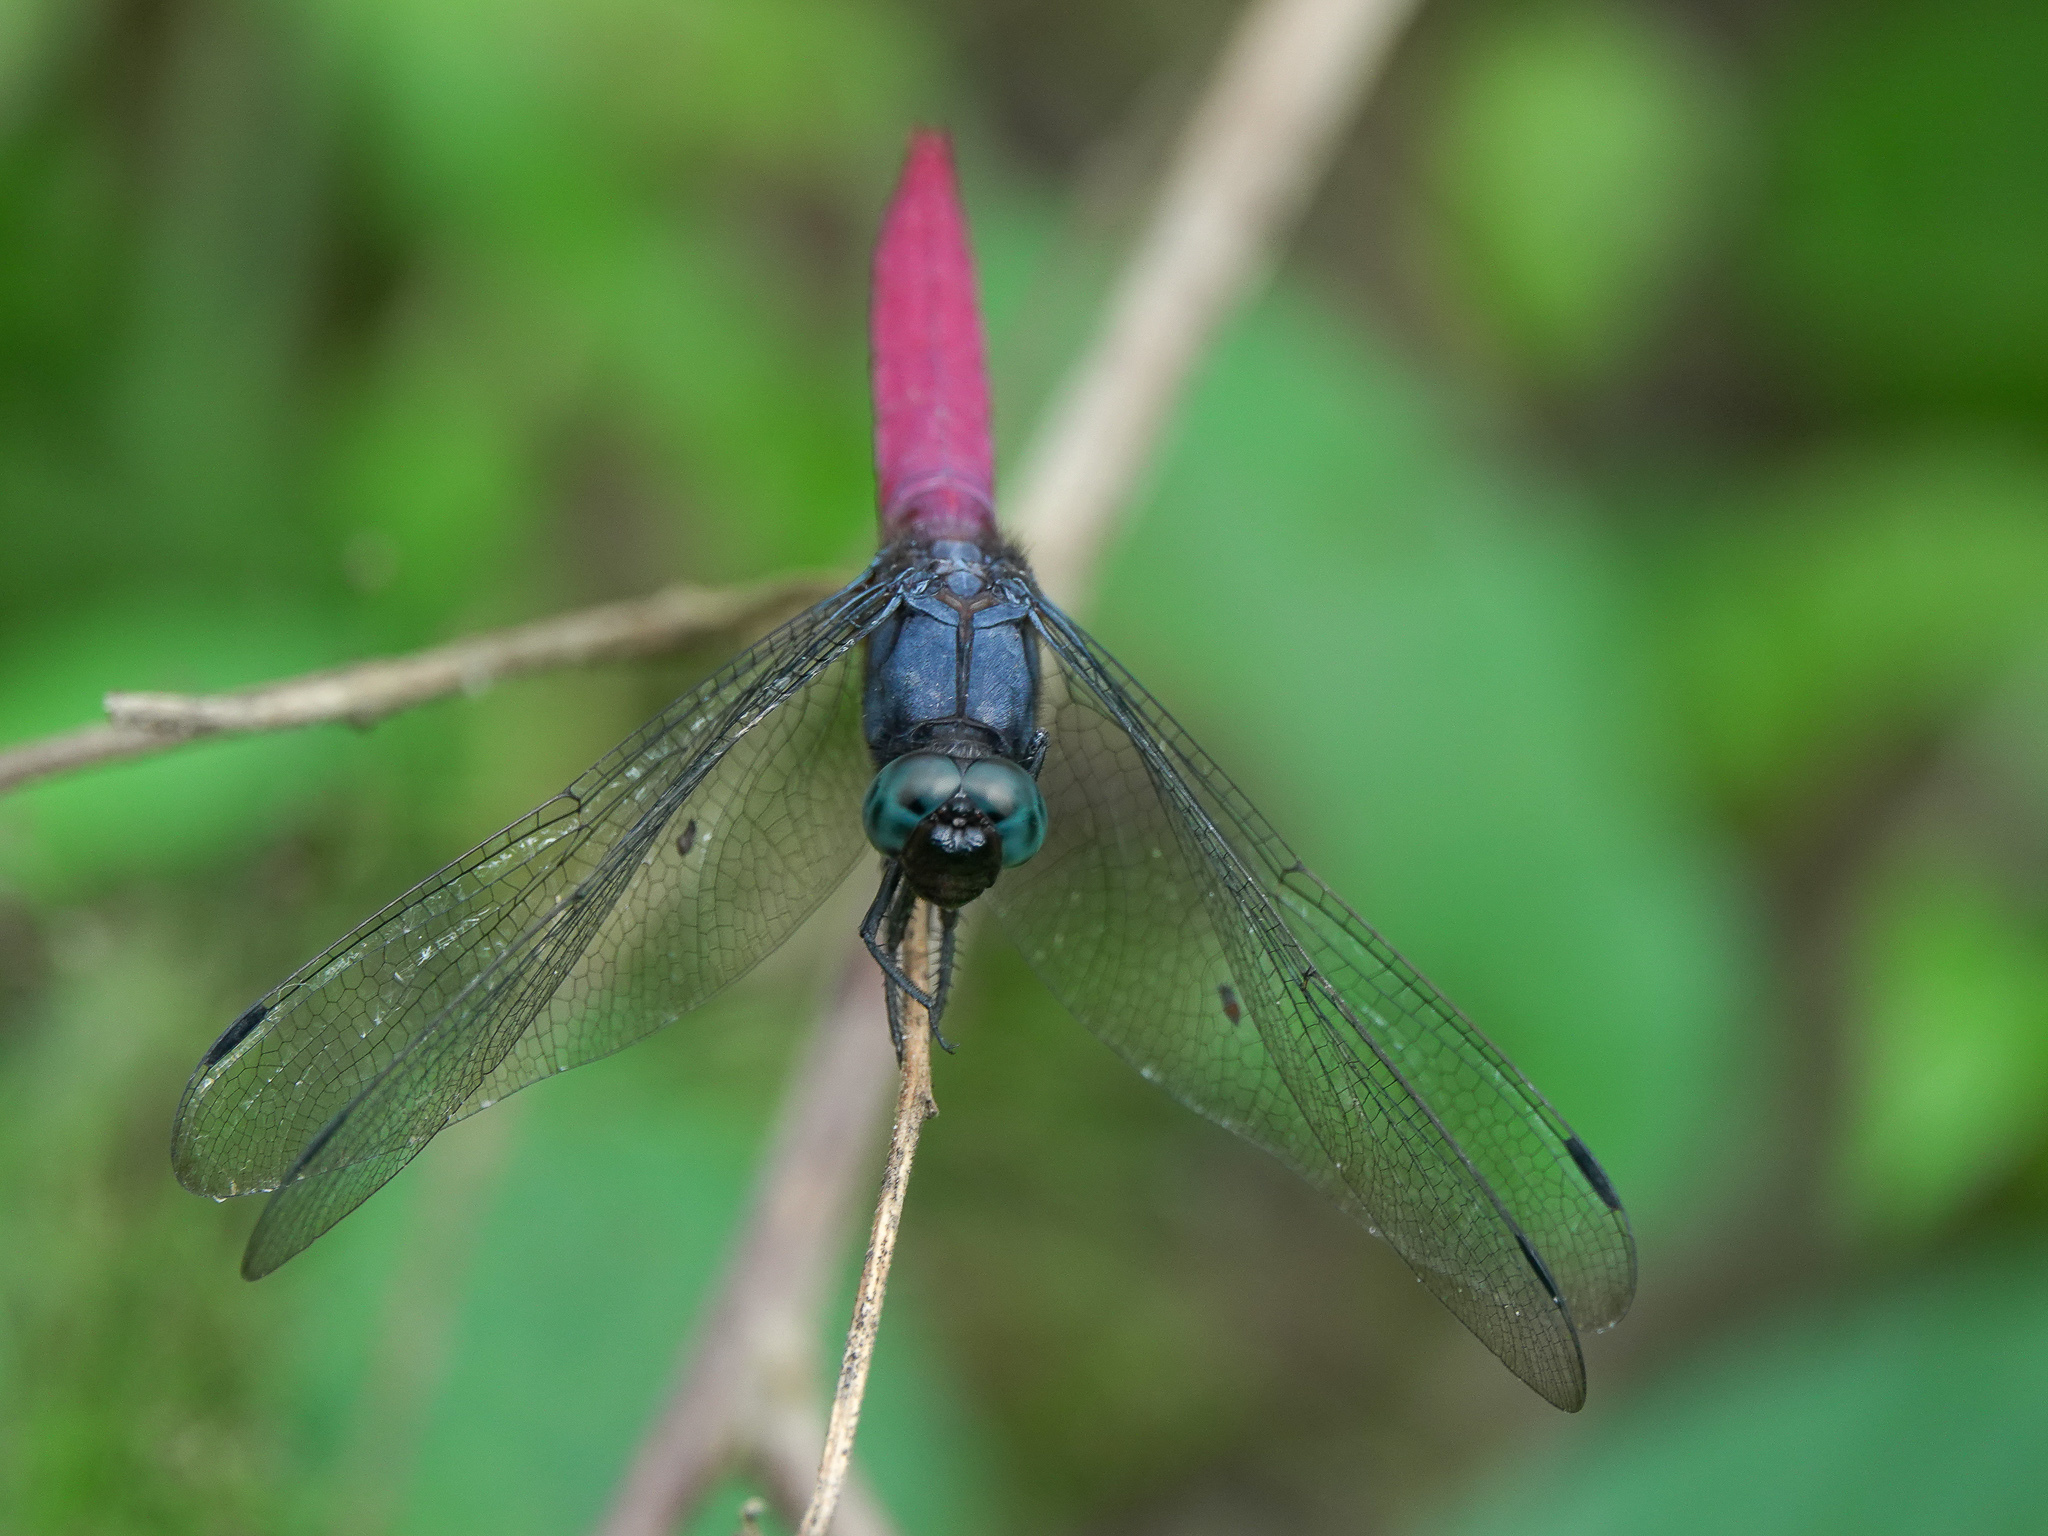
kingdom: Animalia
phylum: Arthropoda
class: Insecta
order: Odonata
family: Libellulidae
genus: Orthetrum
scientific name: Orthetrum pruinosum
